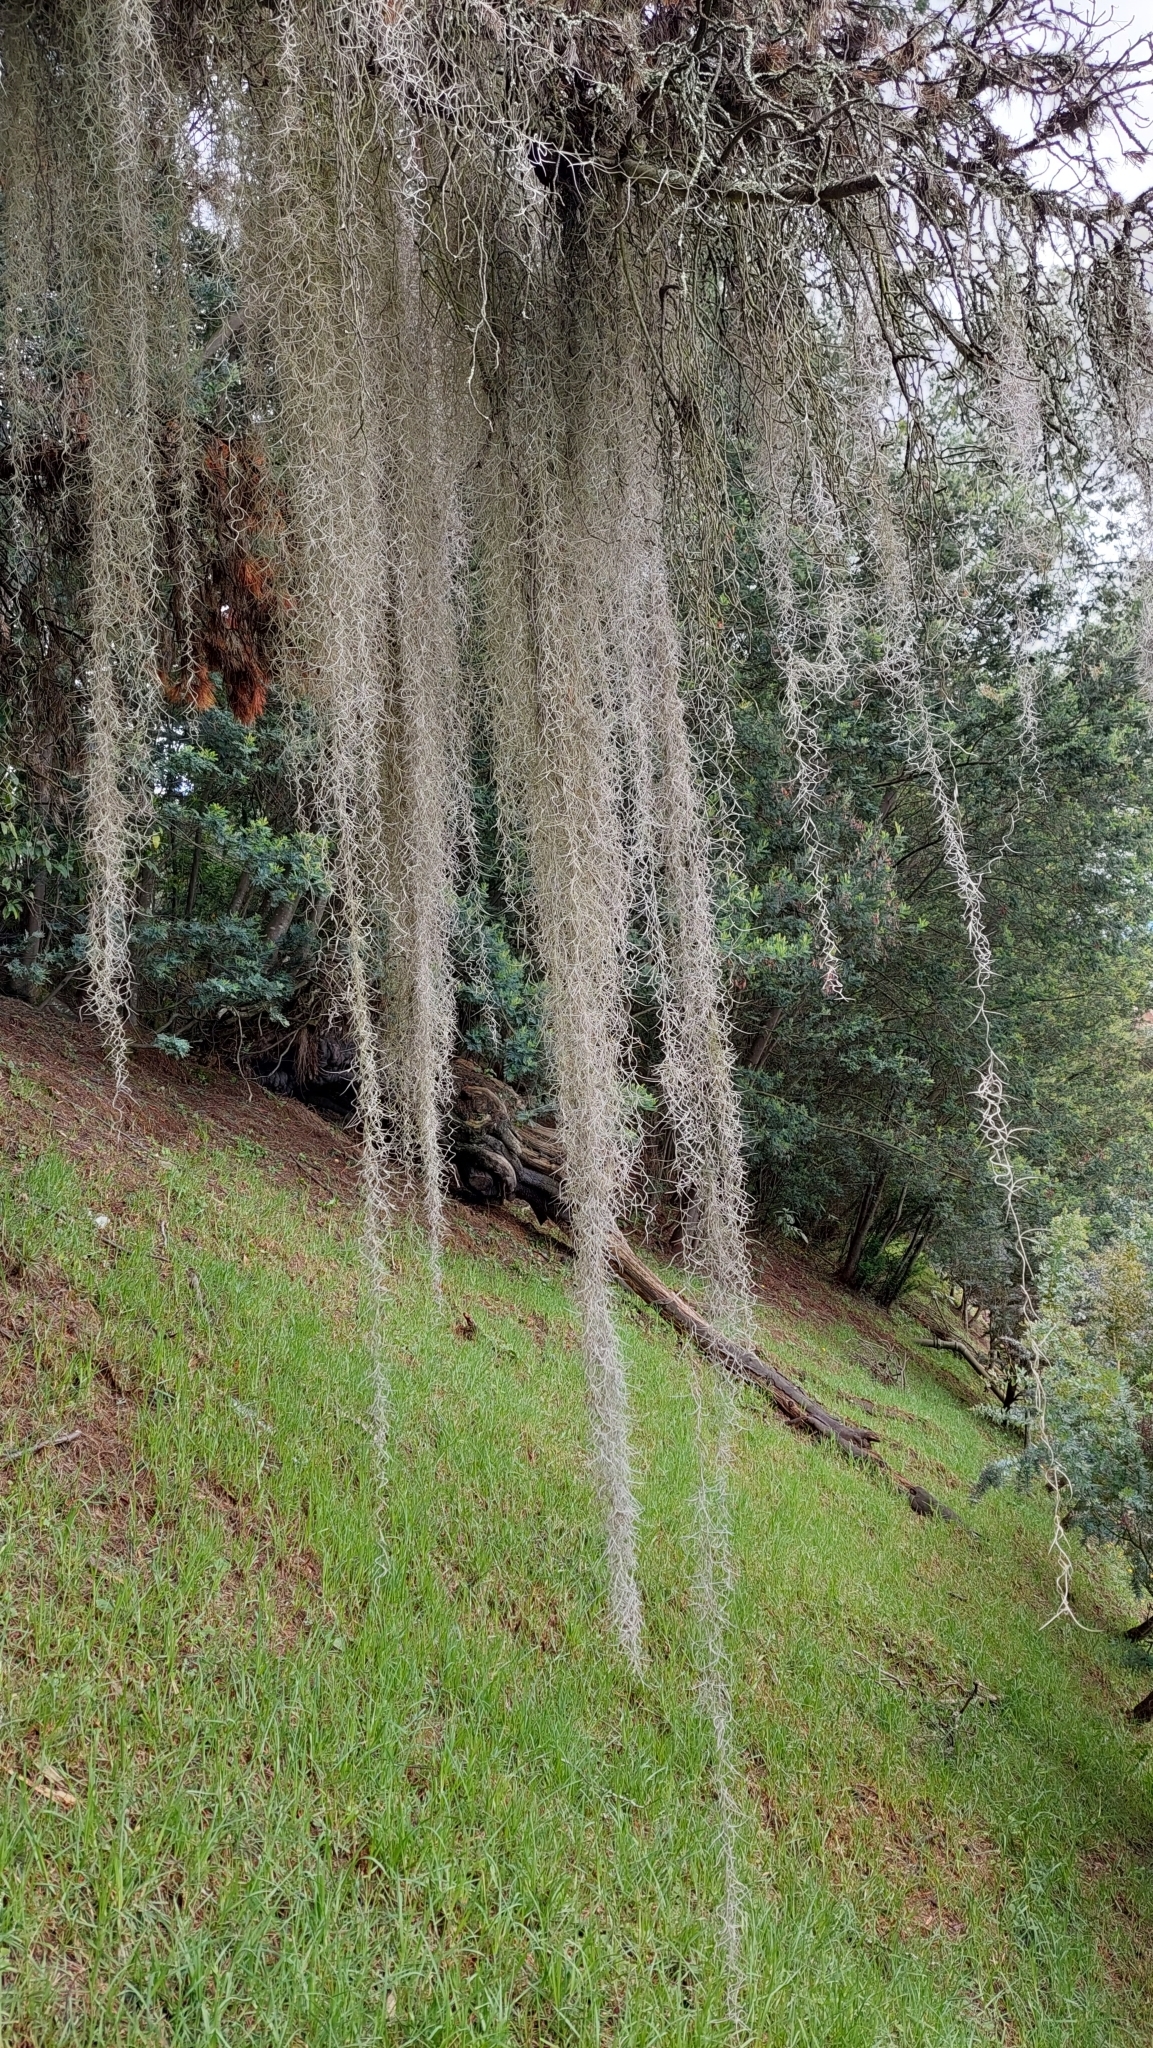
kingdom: Plantae
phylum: Tracheophyta
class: Liliopsida
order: Poales
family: Bromeliaceae
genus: Tillandsia
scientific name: Tillandsia usneoides
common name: Spanish moss
